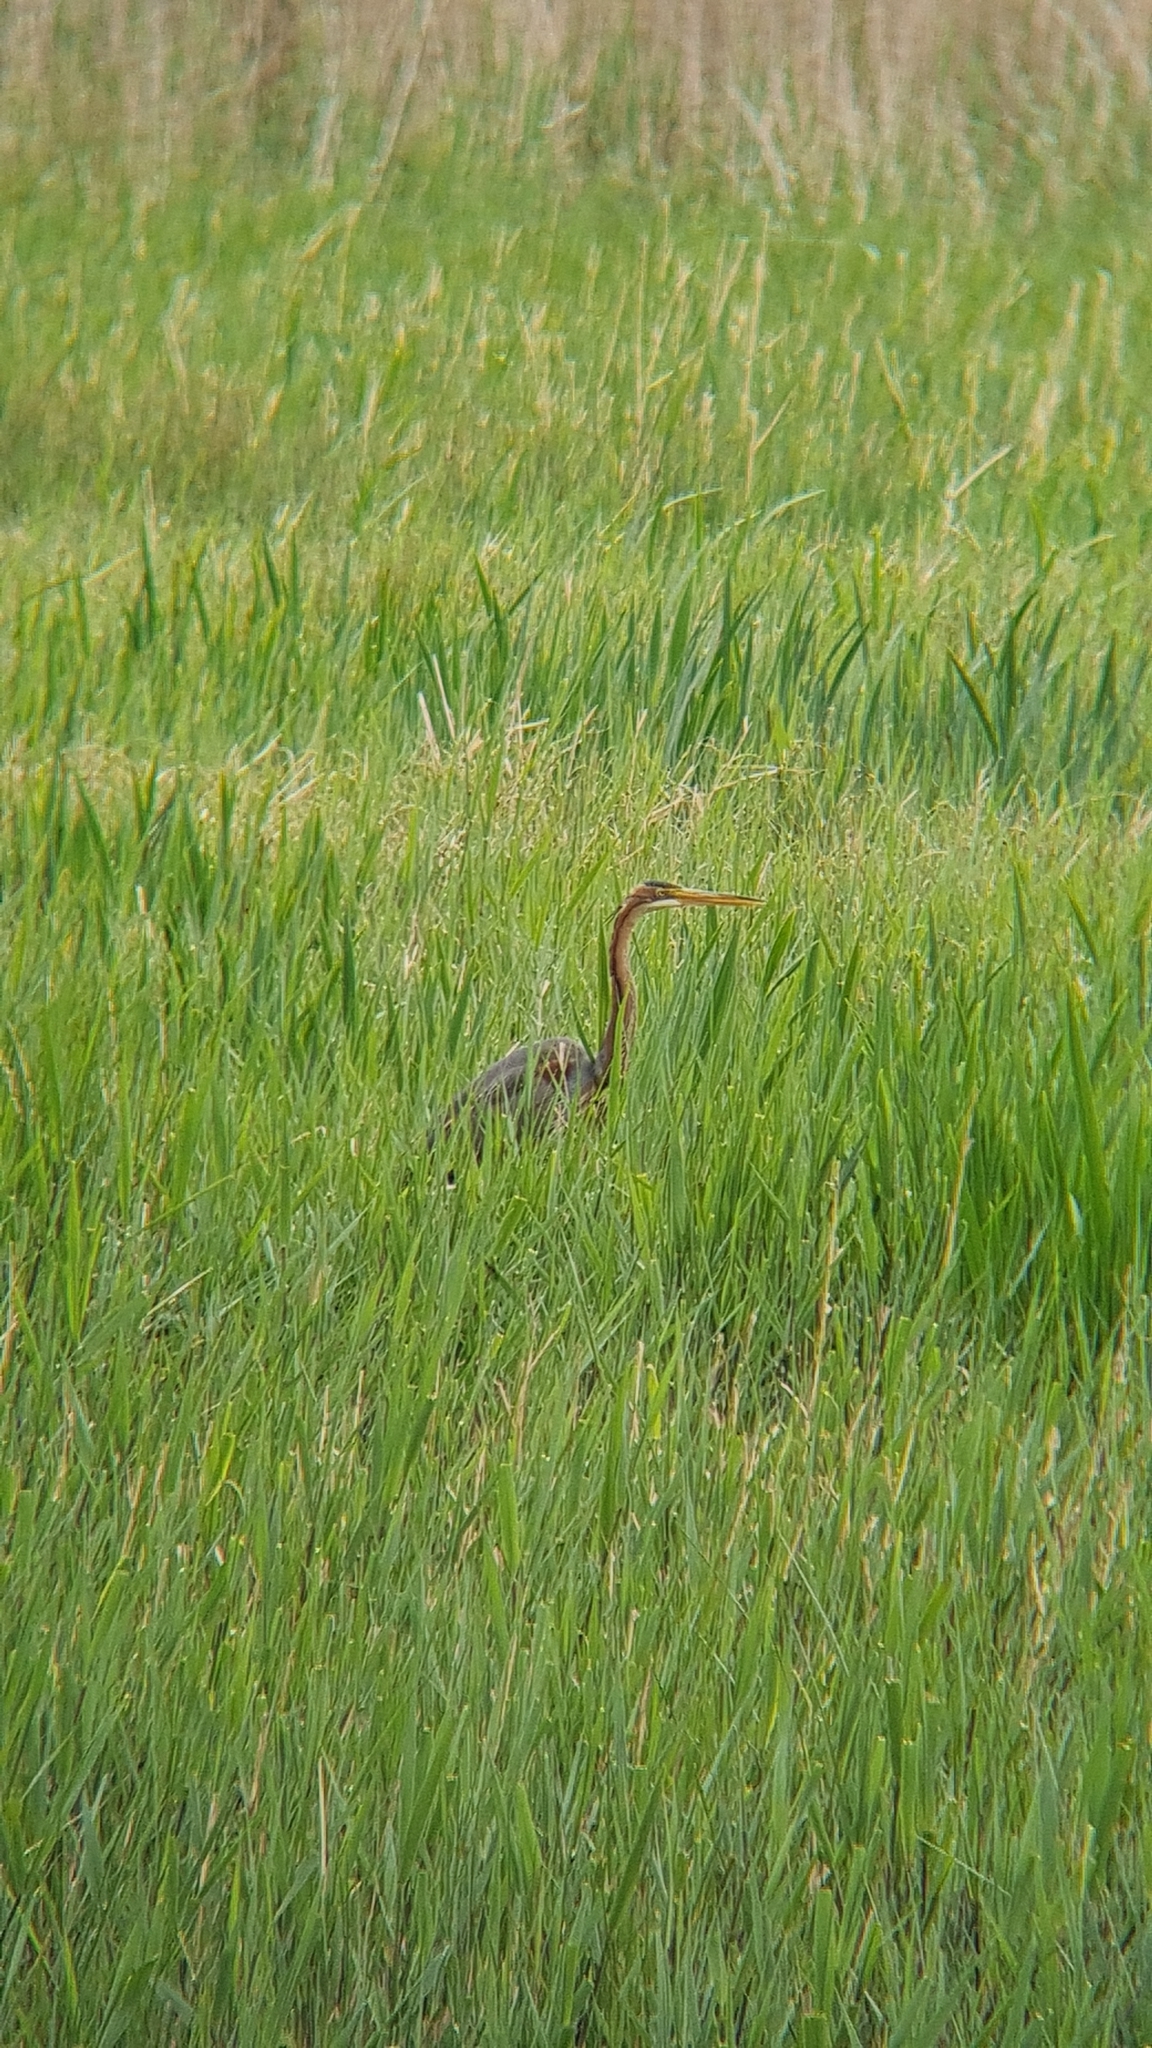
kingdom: Animalia
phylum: Chordata
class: Aves
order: Pelecaniformes
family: Ardeidae
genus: Ardea
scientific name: Ardea purpurea
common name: Purple heron
